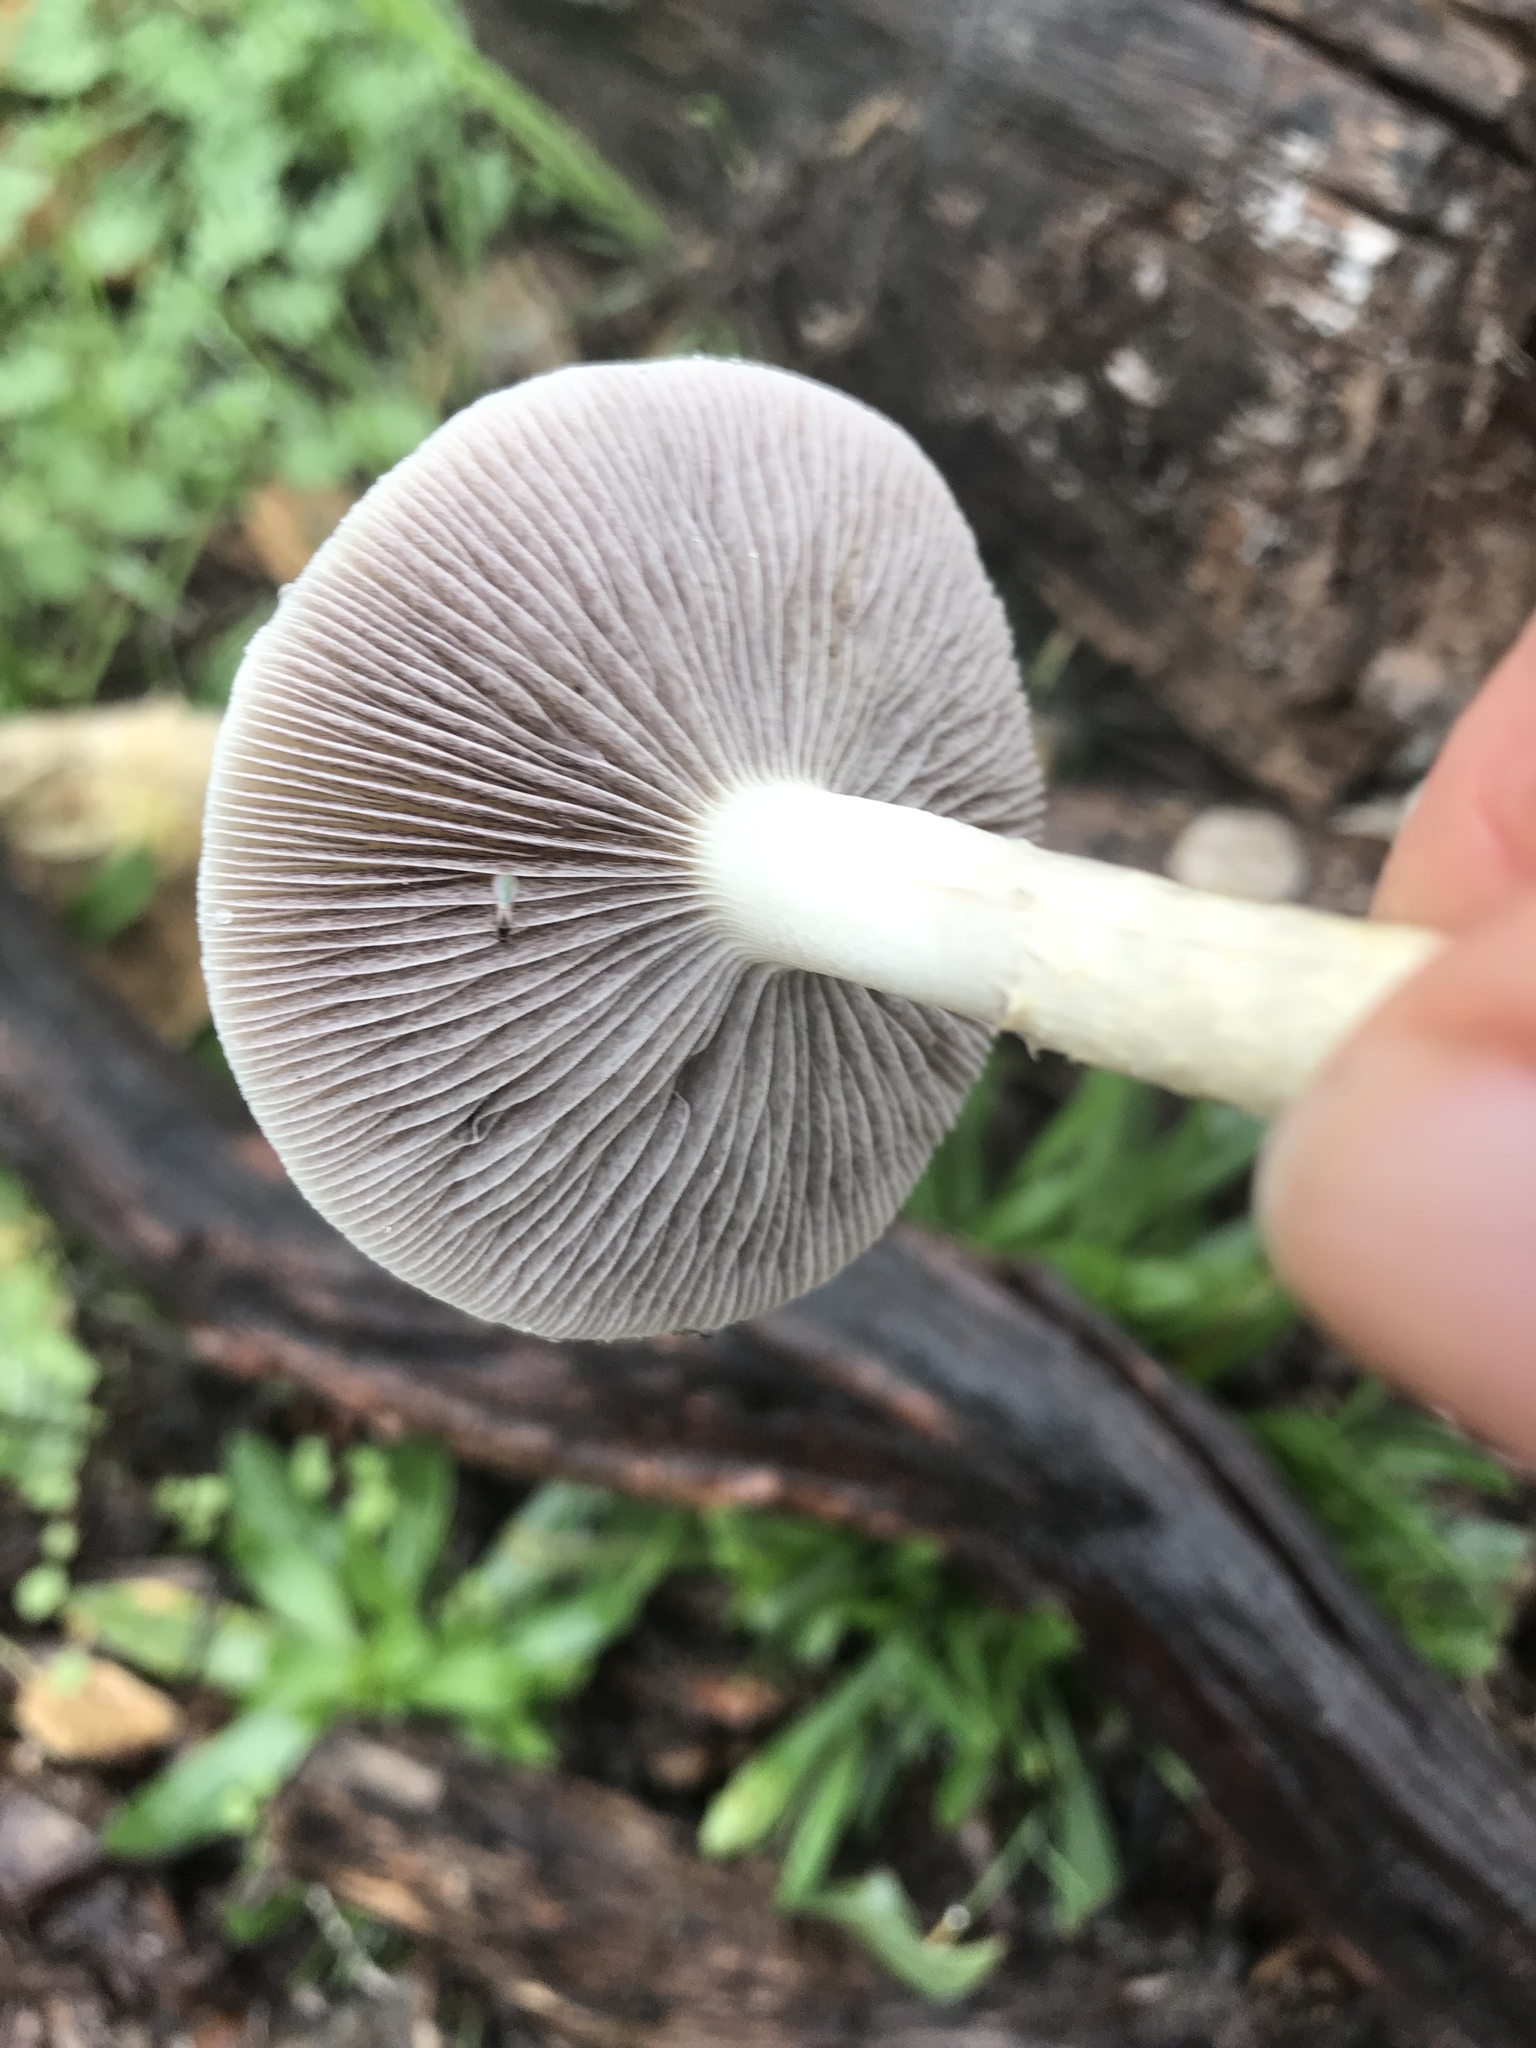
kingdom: Fungi
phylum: Basidiomycota
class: Agaricomycetes
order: Agaricales
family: Strophariaceae
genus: Leratiomyces
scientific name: Leratiomyces percevalii
